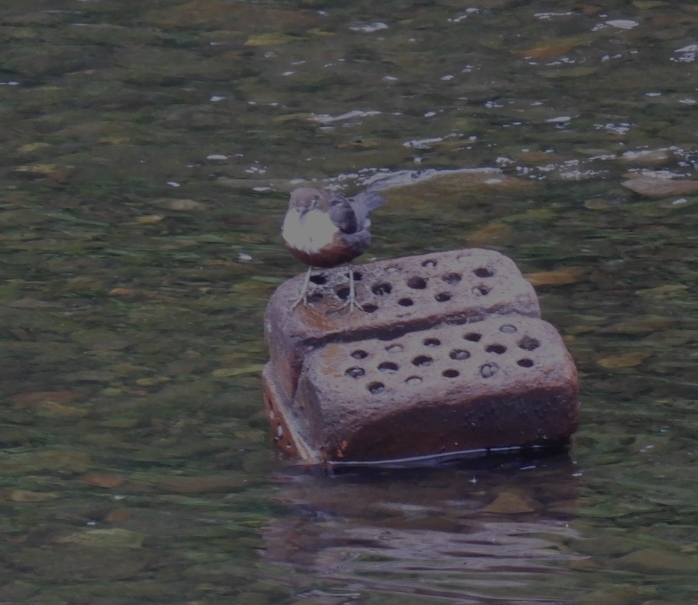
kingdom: Animalia
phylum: Chordata
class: Aves
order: Passeriformes
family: Cinclidae
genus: Cinclus
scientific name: Cinclus cinclus
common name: White-throated dipper
